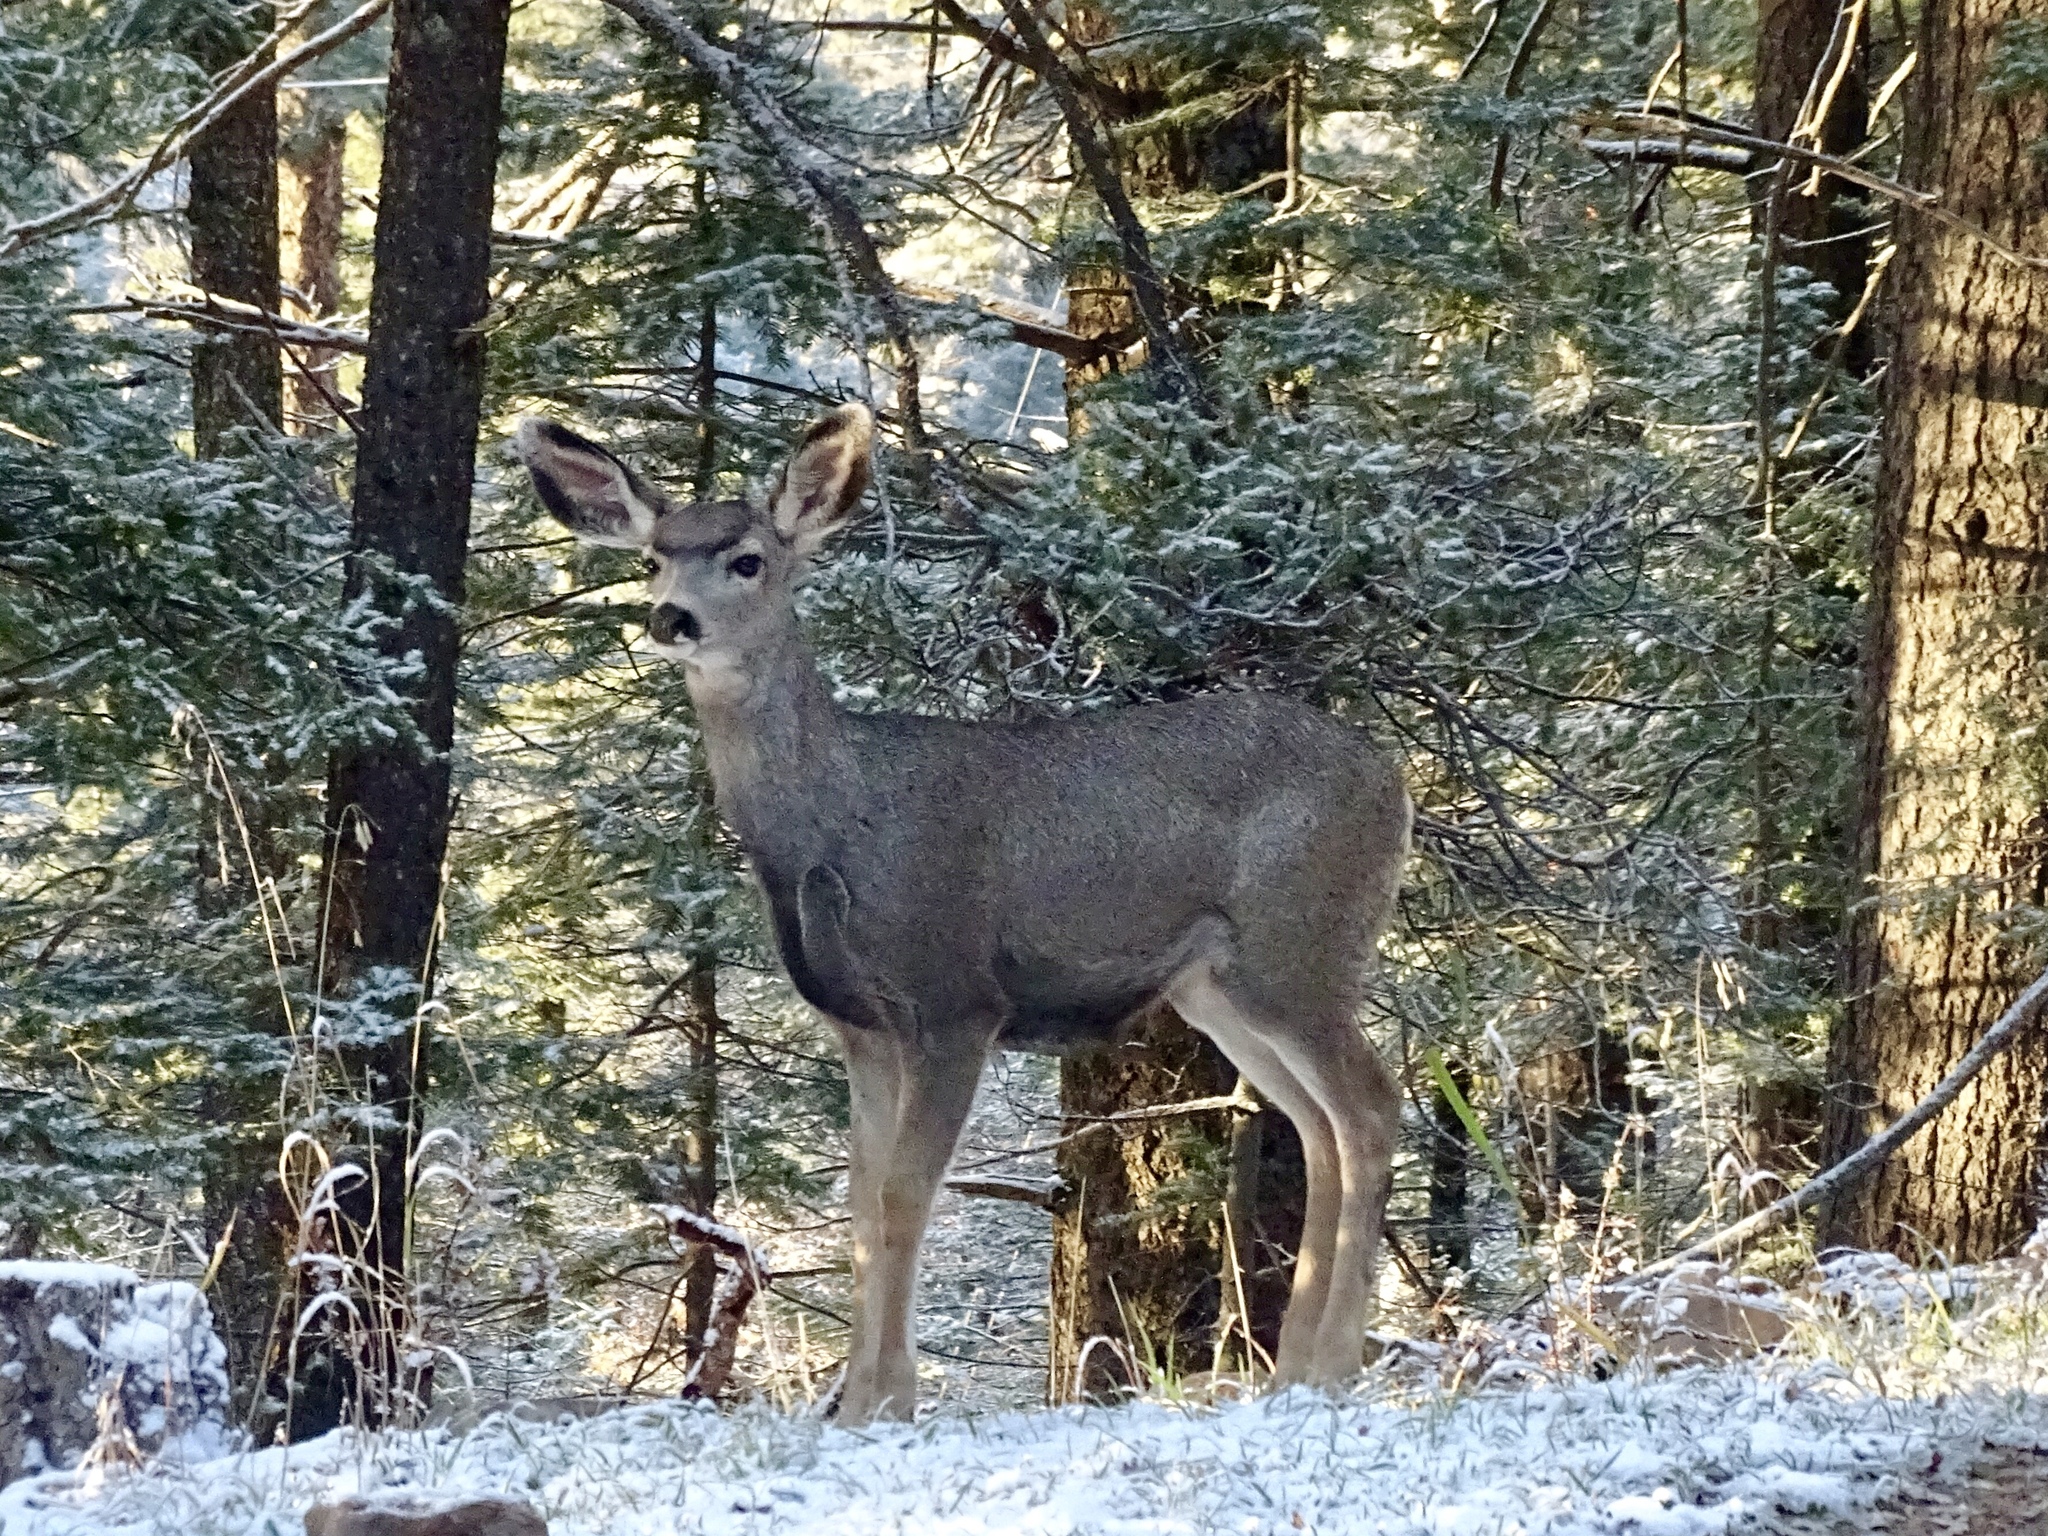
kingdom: Animalia
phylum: Chordata
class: Mammalia
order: Artiodactyla
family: Cervidae
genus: Odocoileus
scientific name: Odocoileus hemionus
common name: Mule deer
